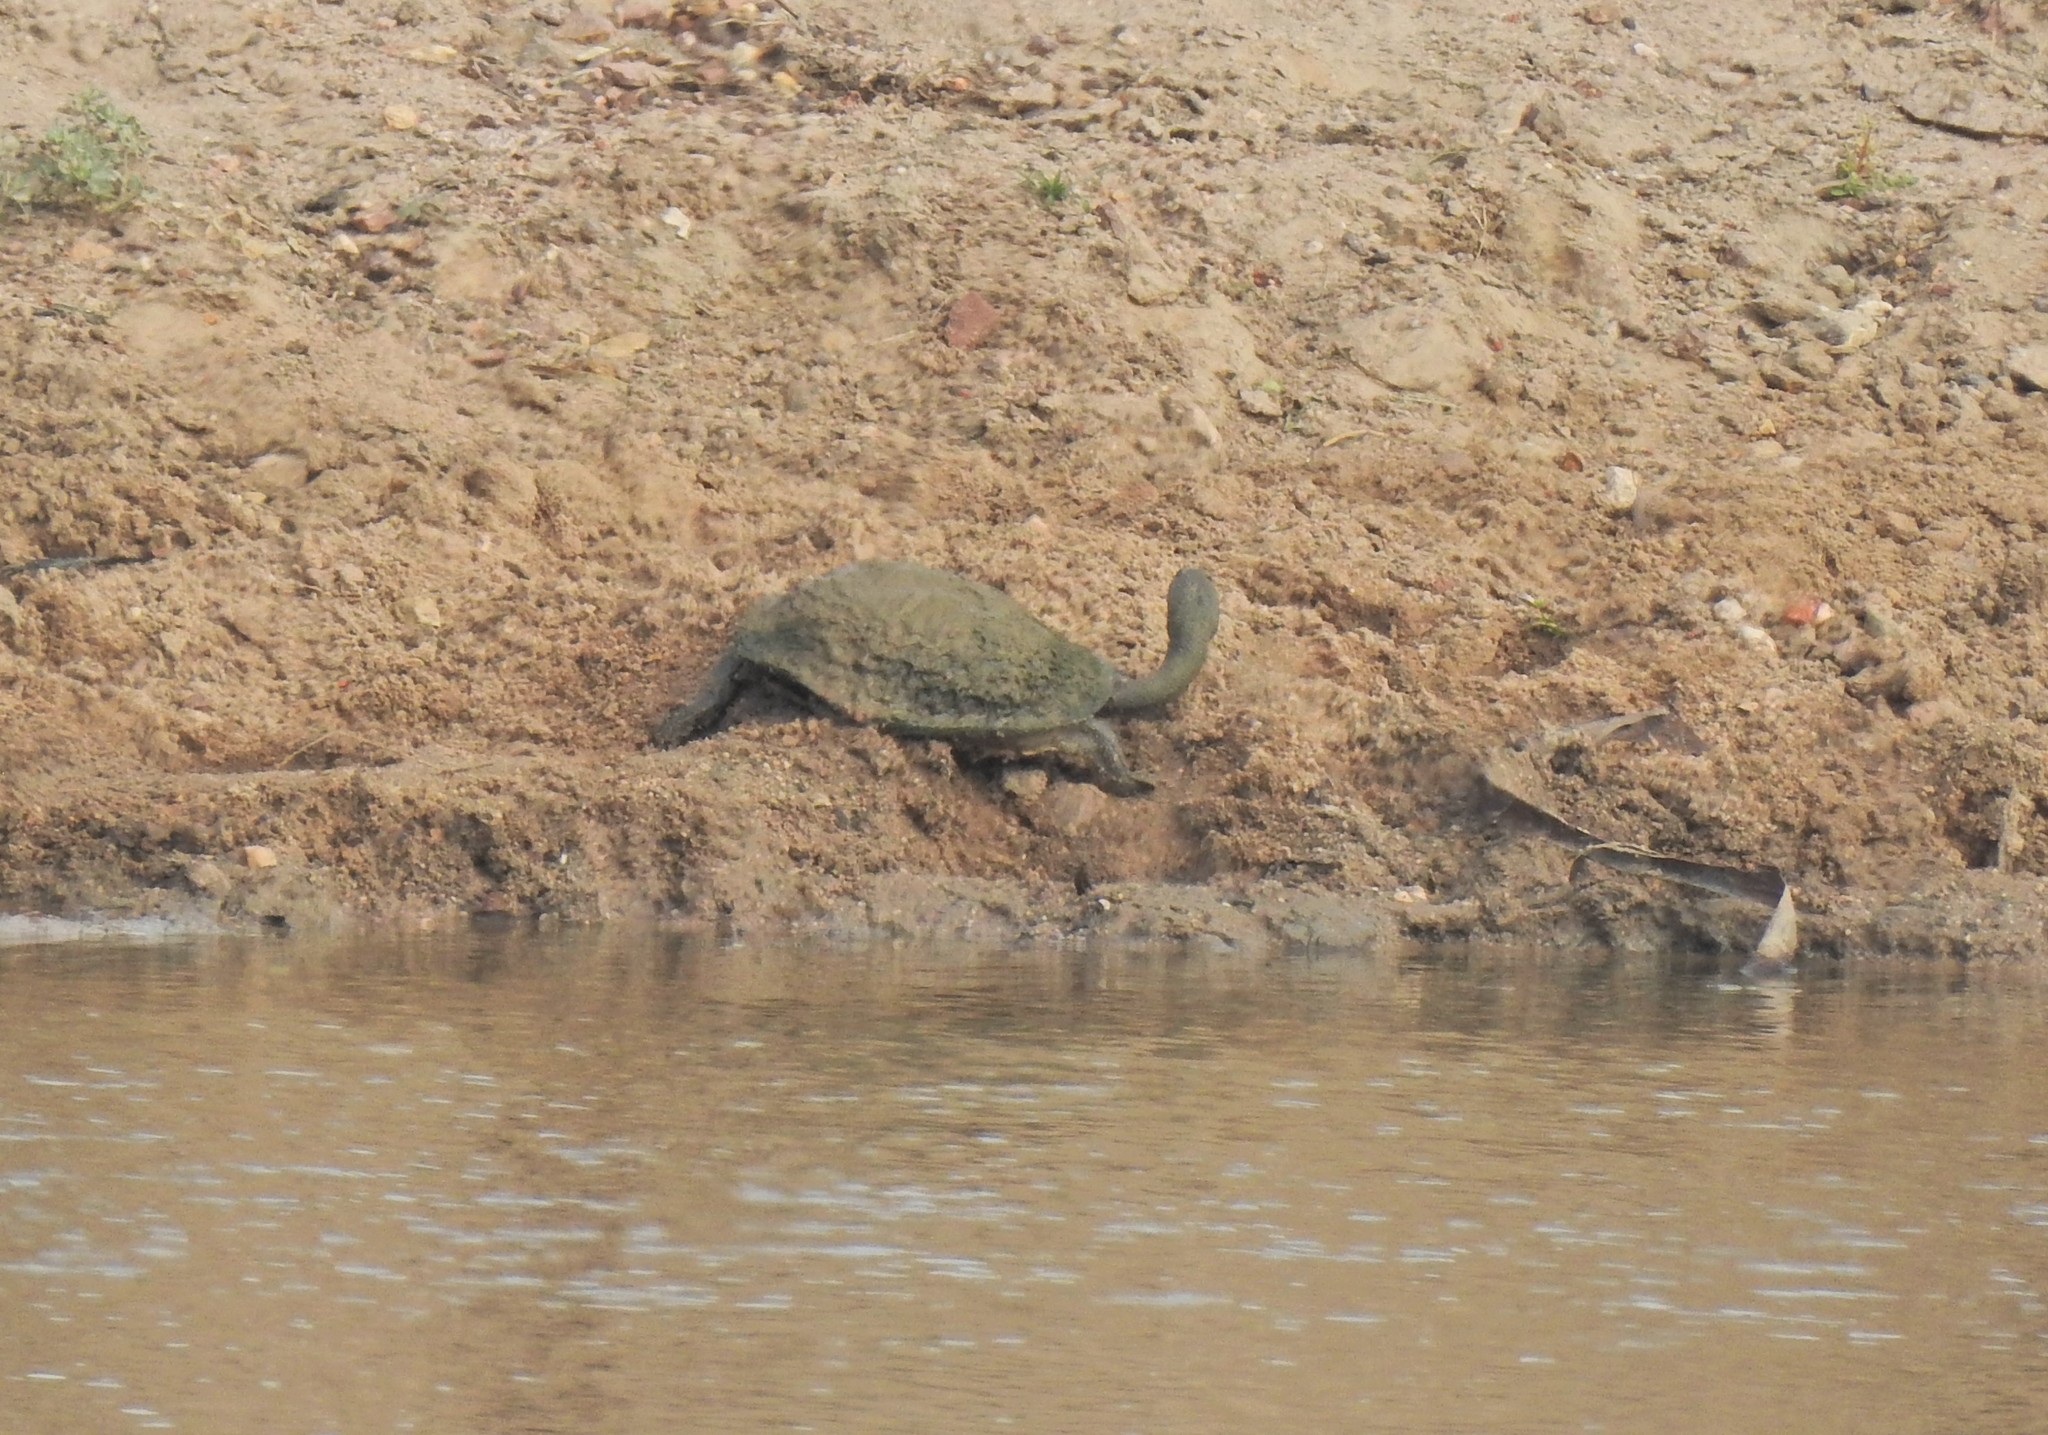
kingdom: Animalia
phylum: Chordata
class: Testudines
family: Chelidae
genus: Chelodina
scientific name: Chelodina expansa
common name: Giant snakeneck turtle
